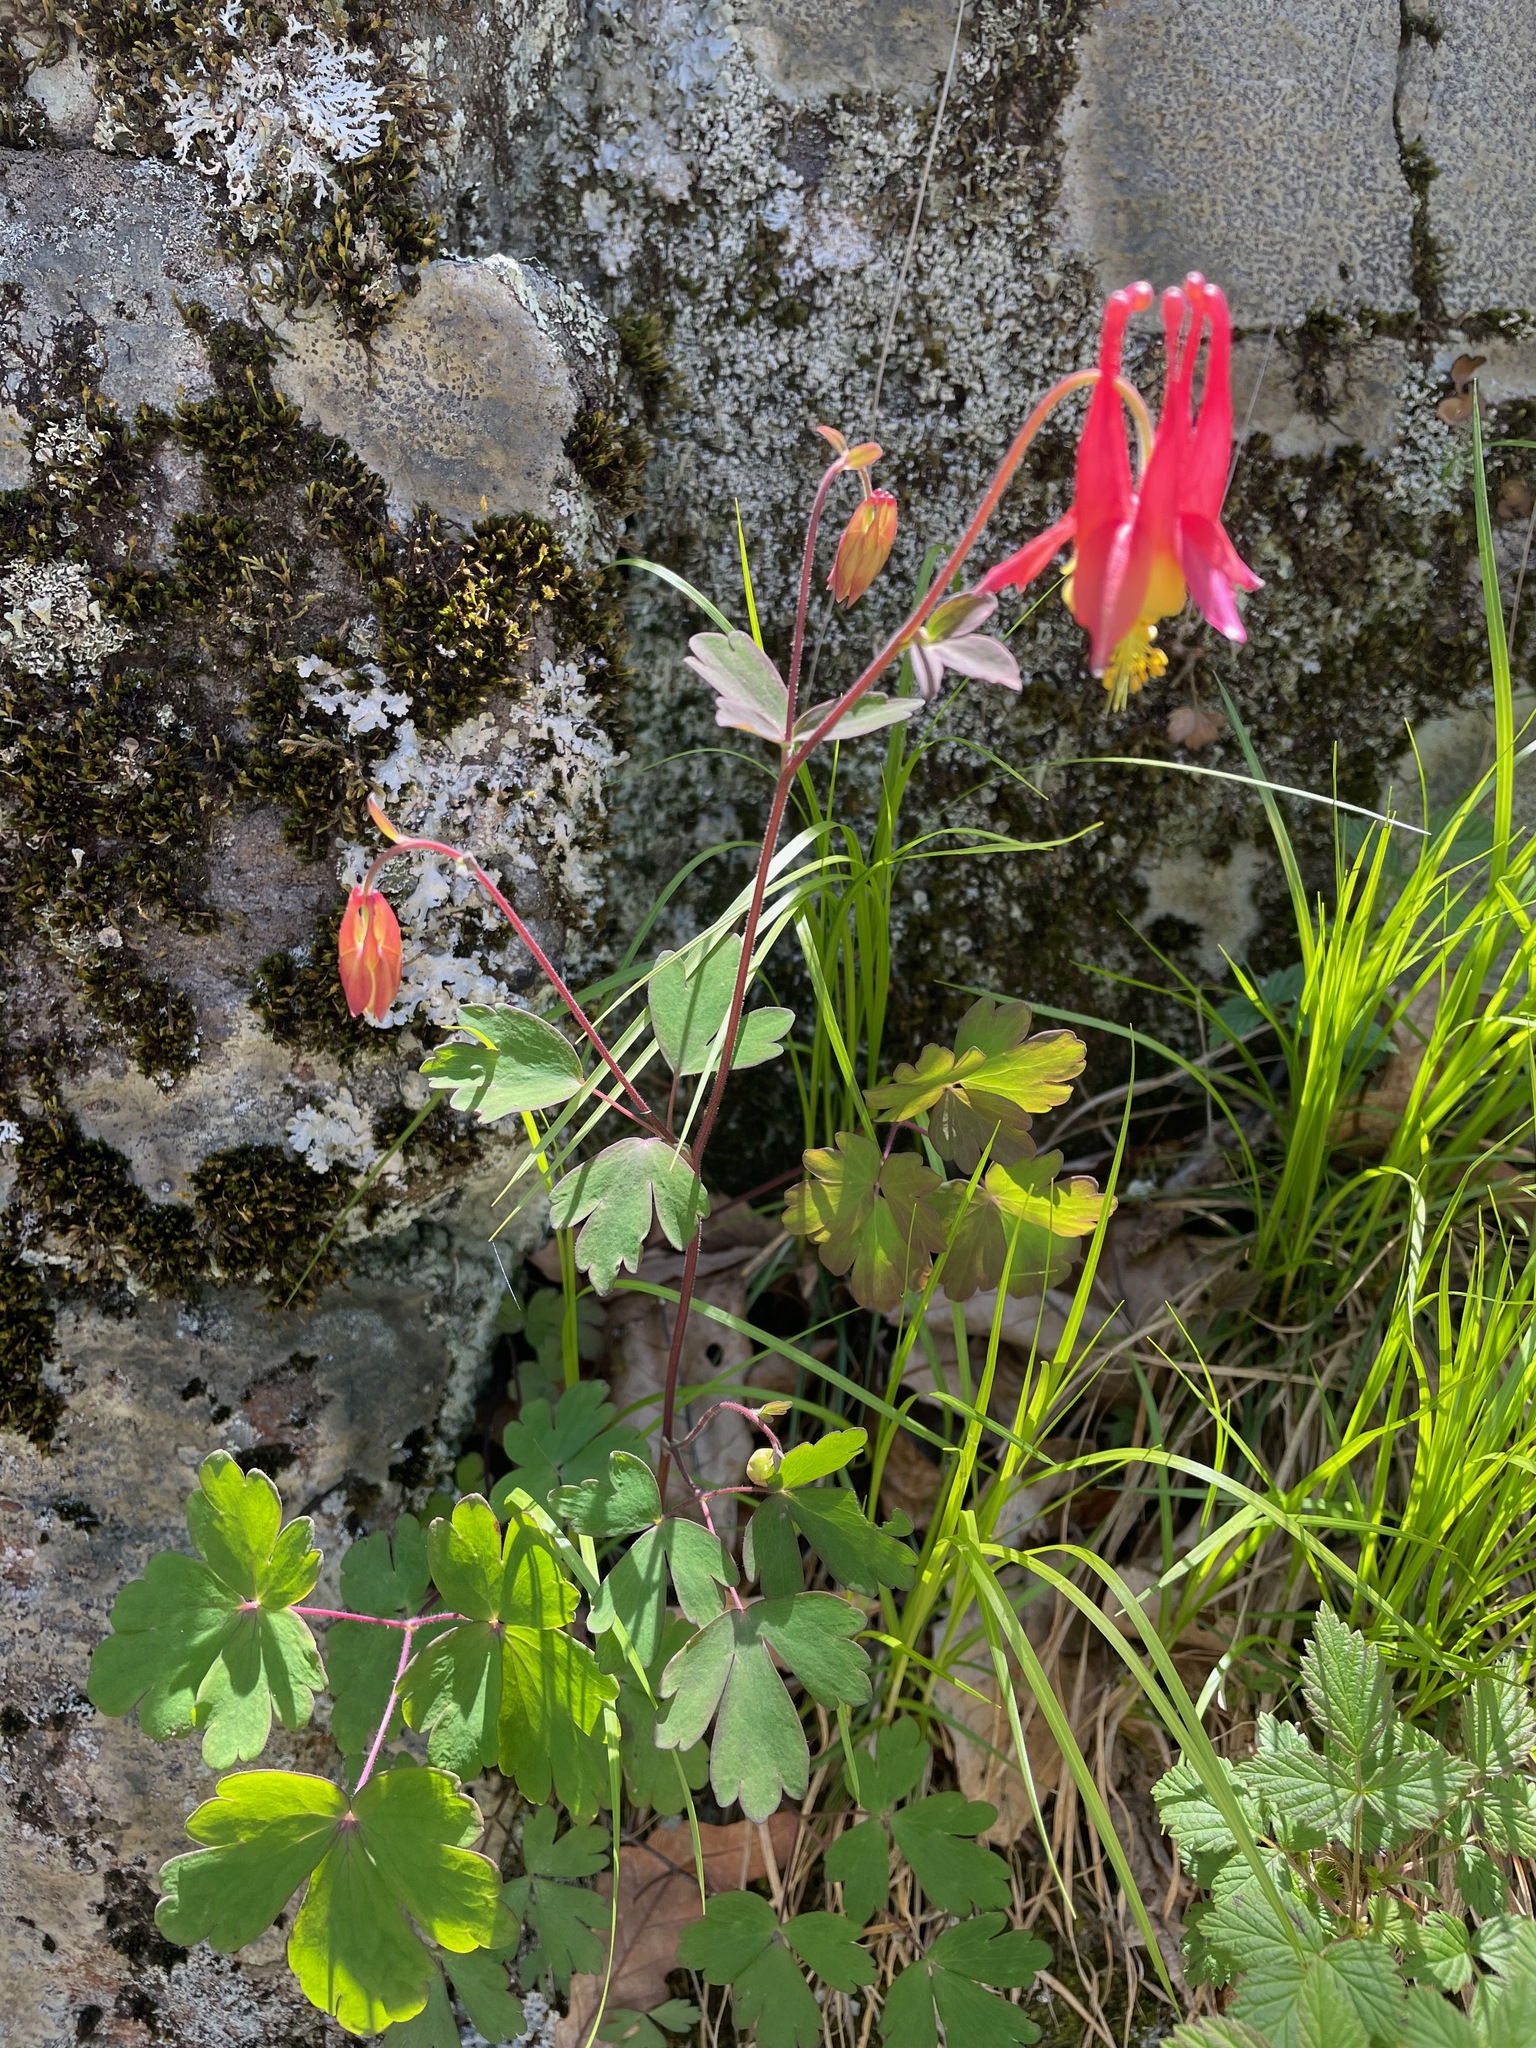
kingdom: Plantae
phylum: Tracheophyta
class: Magnoliopsida
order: Ranunculales
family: Ranunculaceae
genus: Aquilegia
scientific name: Aquilegia canadensis
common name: American columbine
